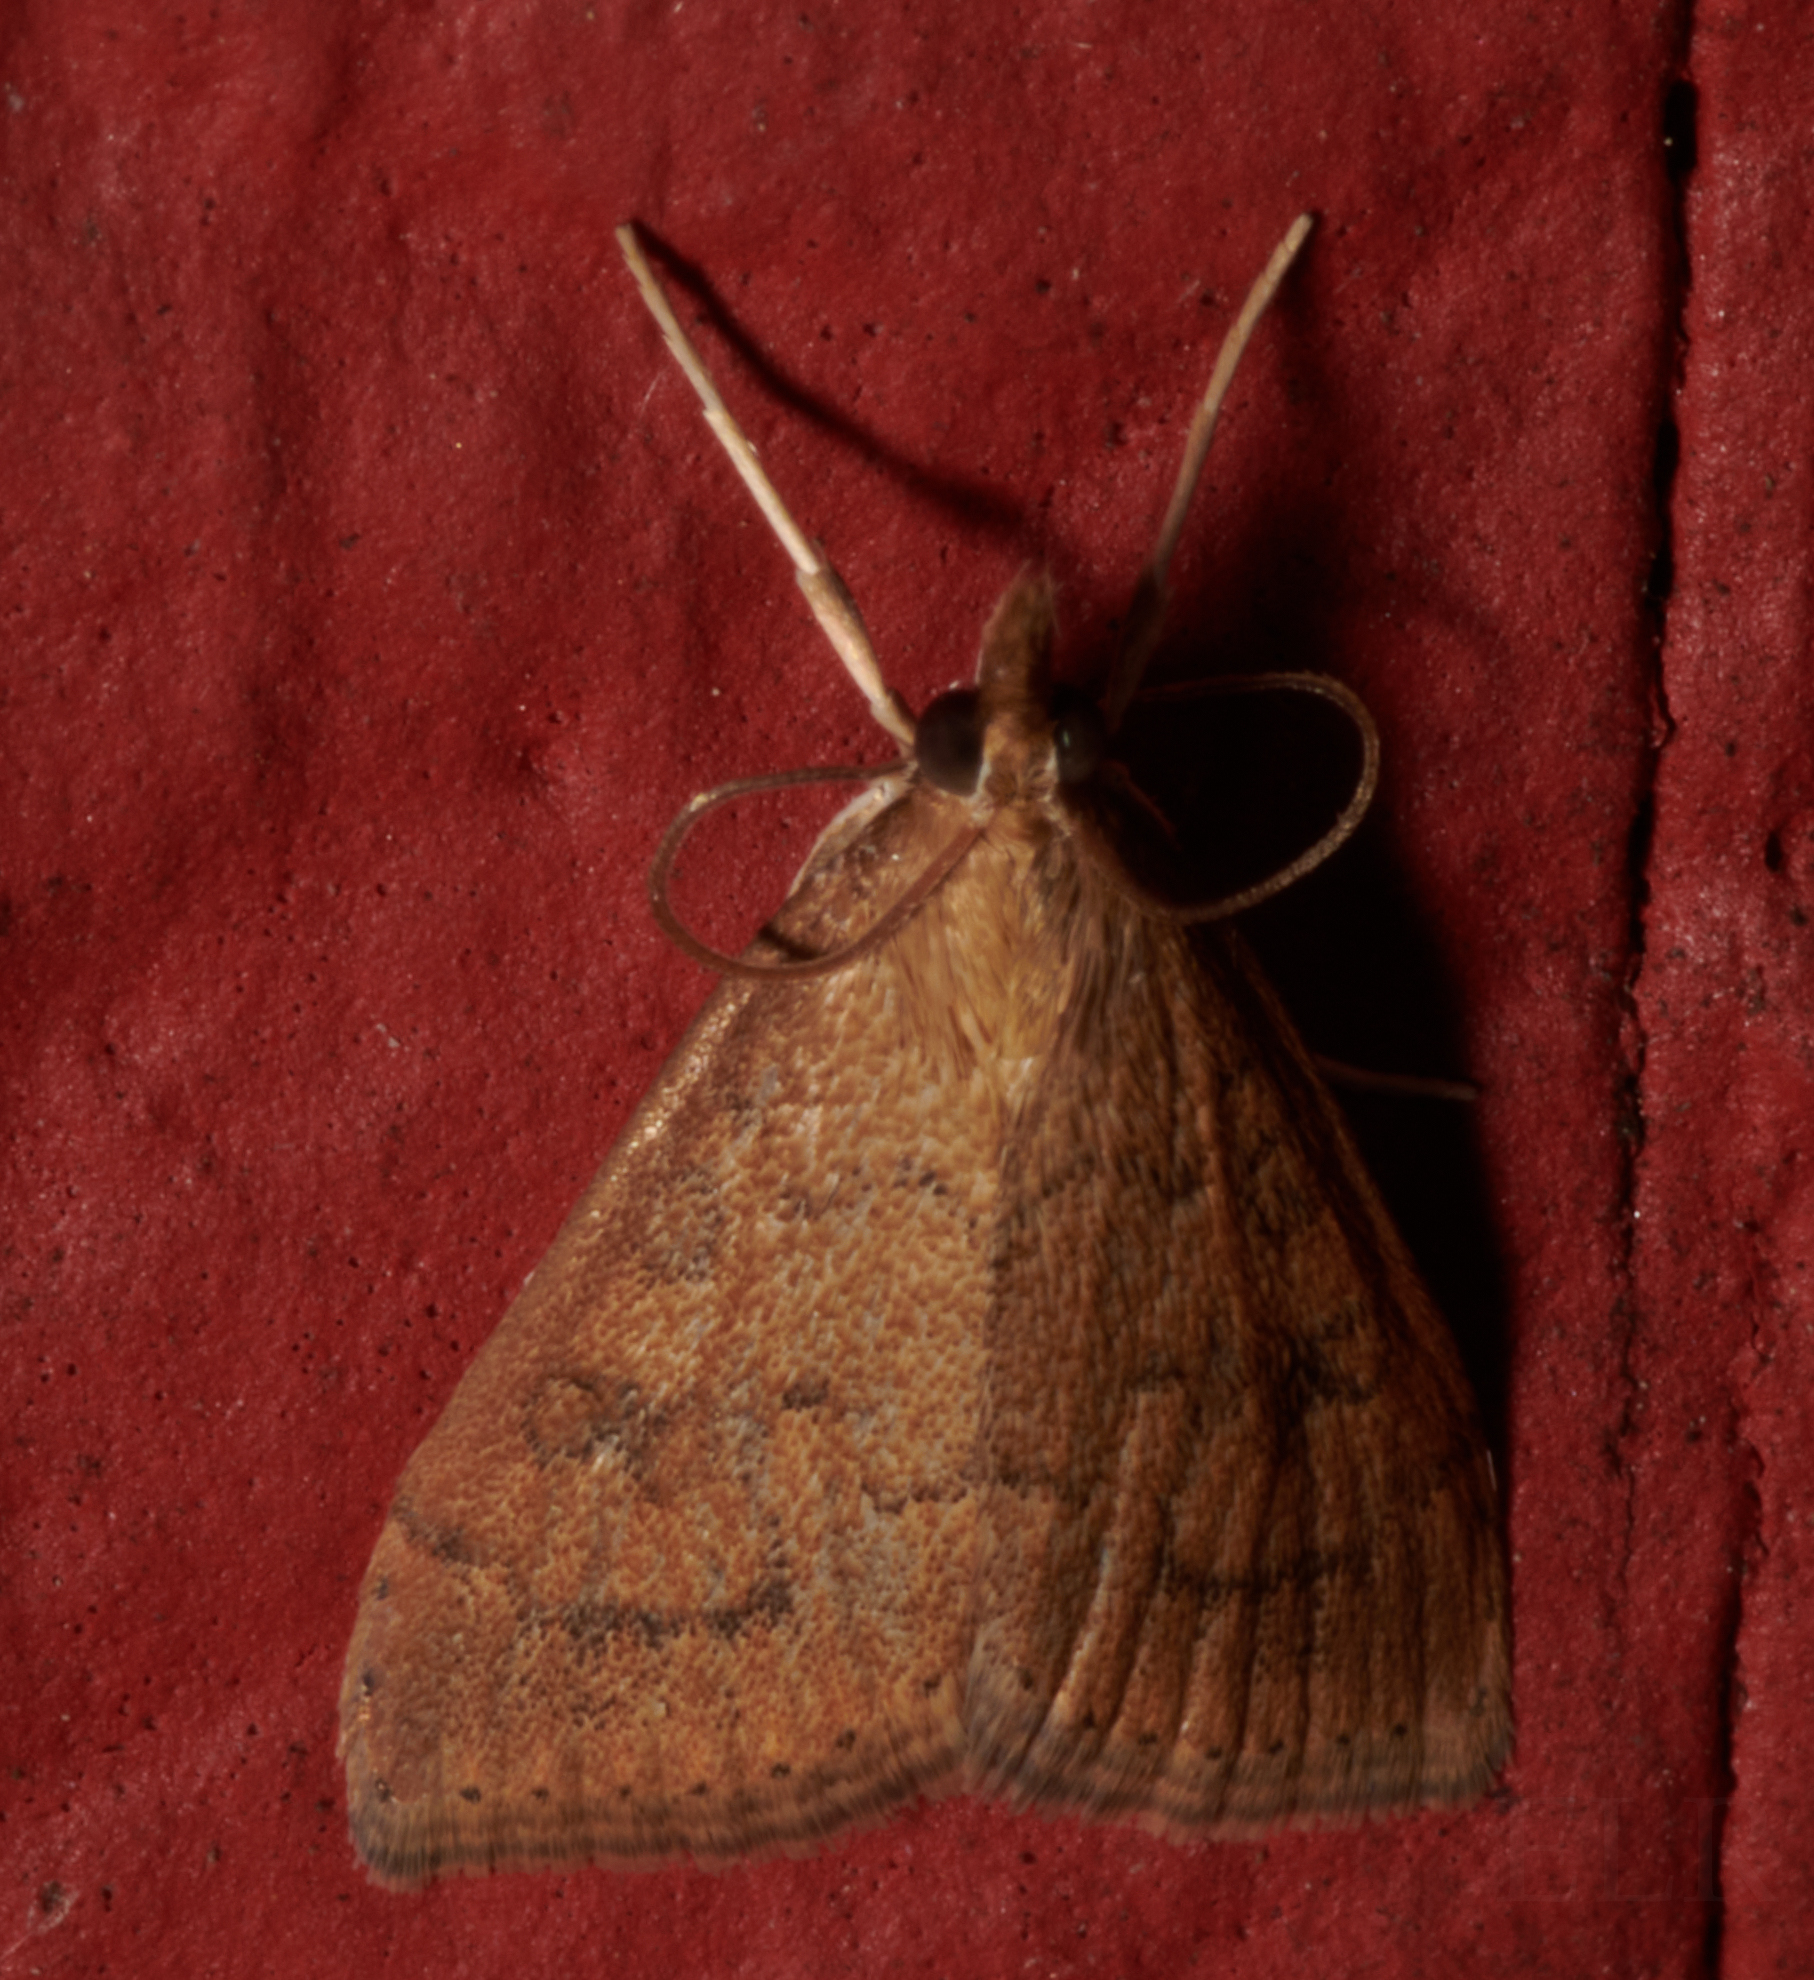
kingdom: Animalia
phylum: Arthropoda
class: Insecta
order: Lepidoptera
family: Crambidae
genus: Udea
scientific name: Udea rubigalis
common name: Celery leaftier moth
